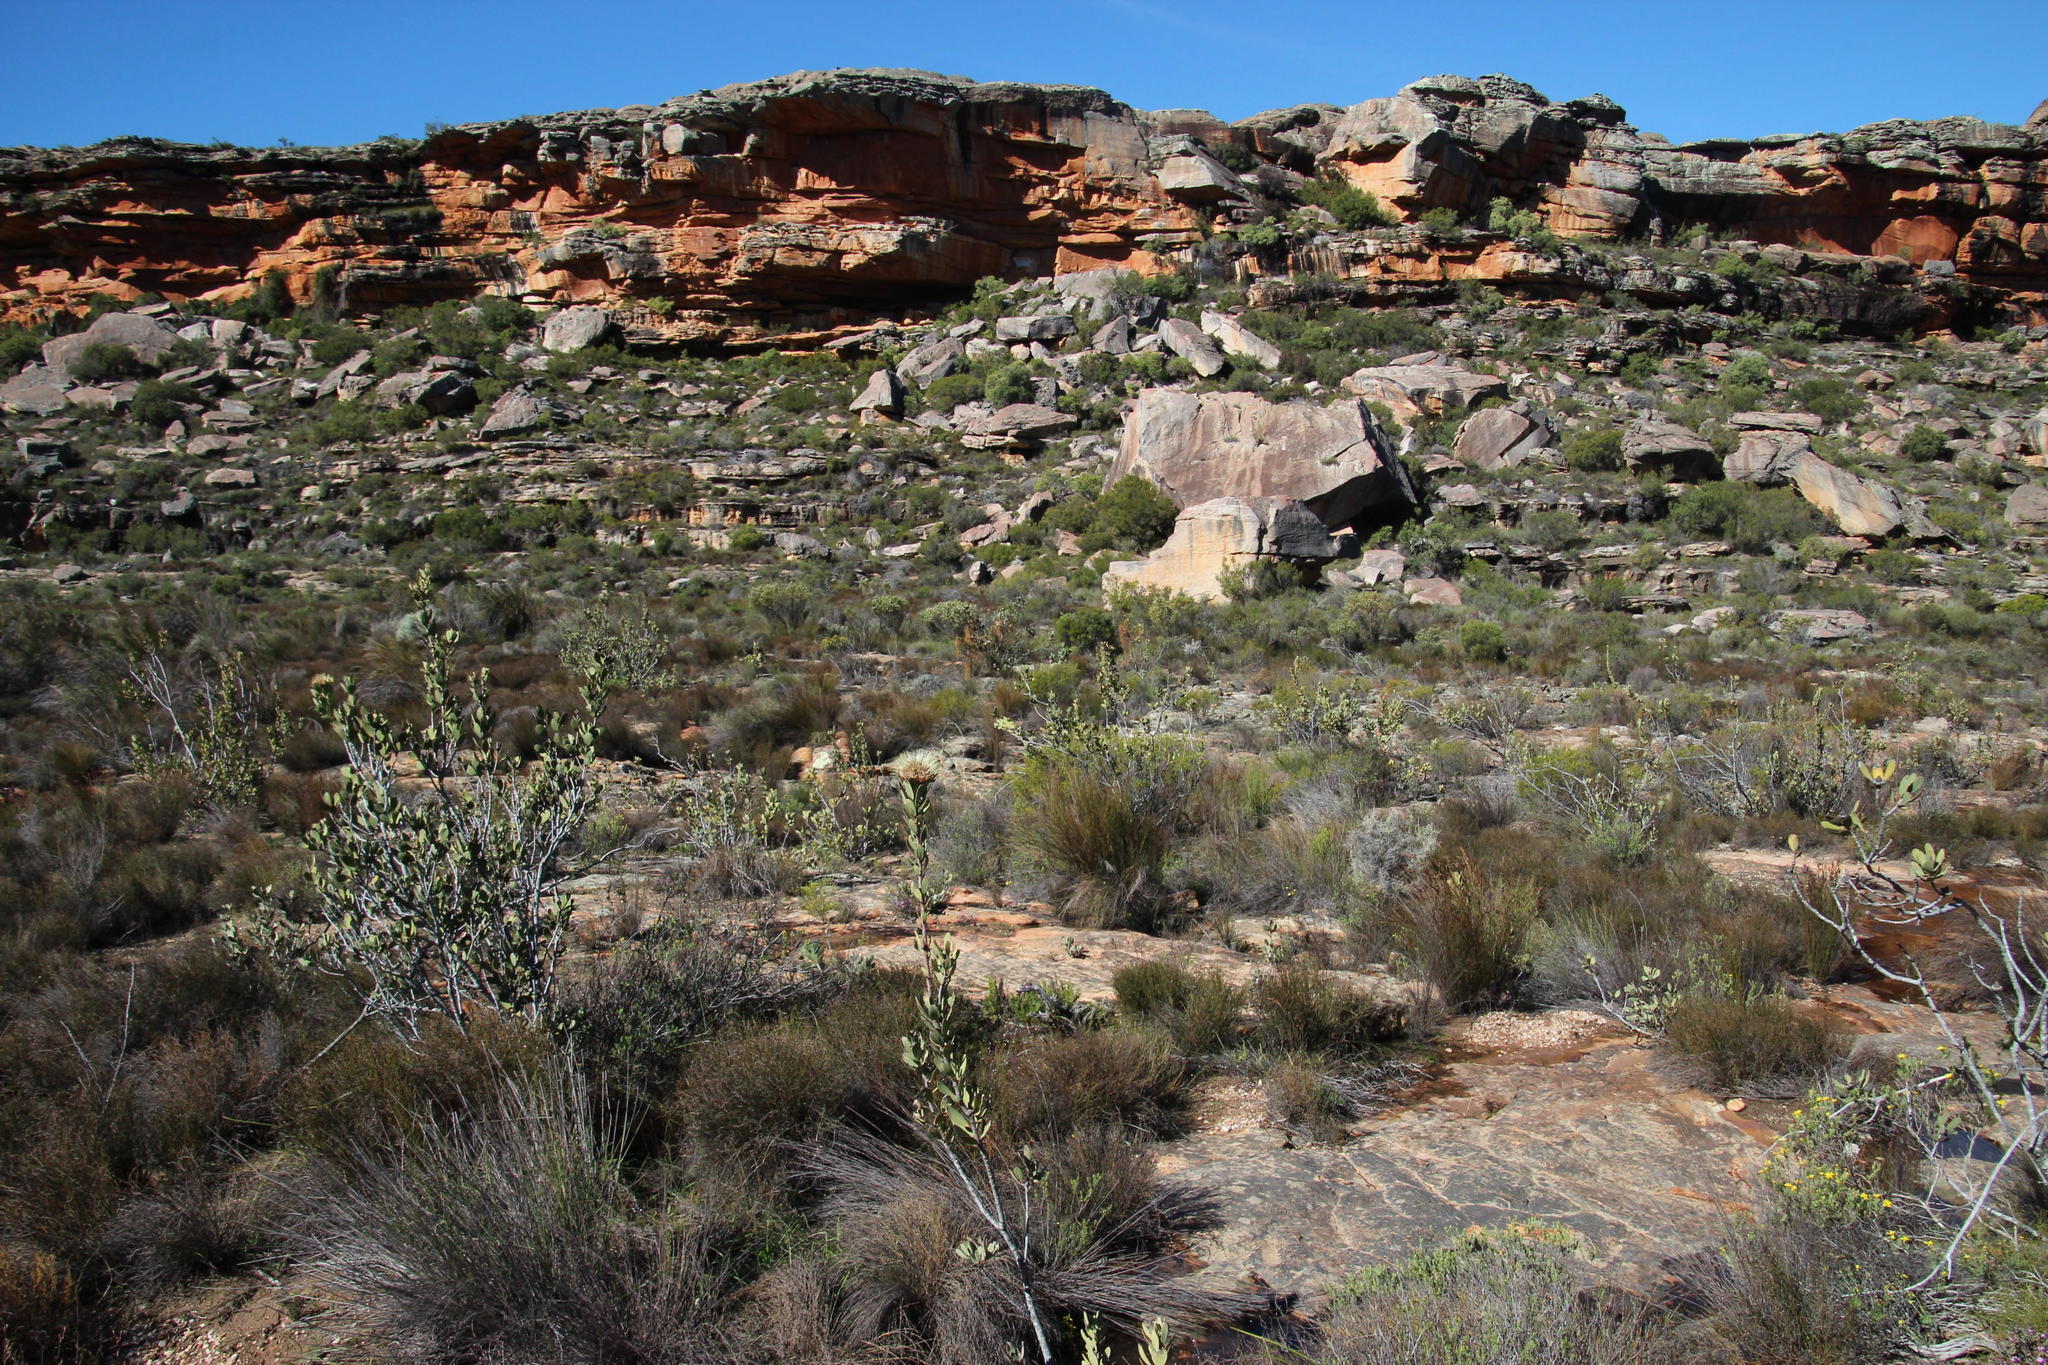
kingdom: Plantae
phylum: Tracheophyta
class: Magnoliopsida
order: Proteales
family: Proteaceae
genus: Protea
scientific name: Protea glabra
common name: Chestnut sugarbush
